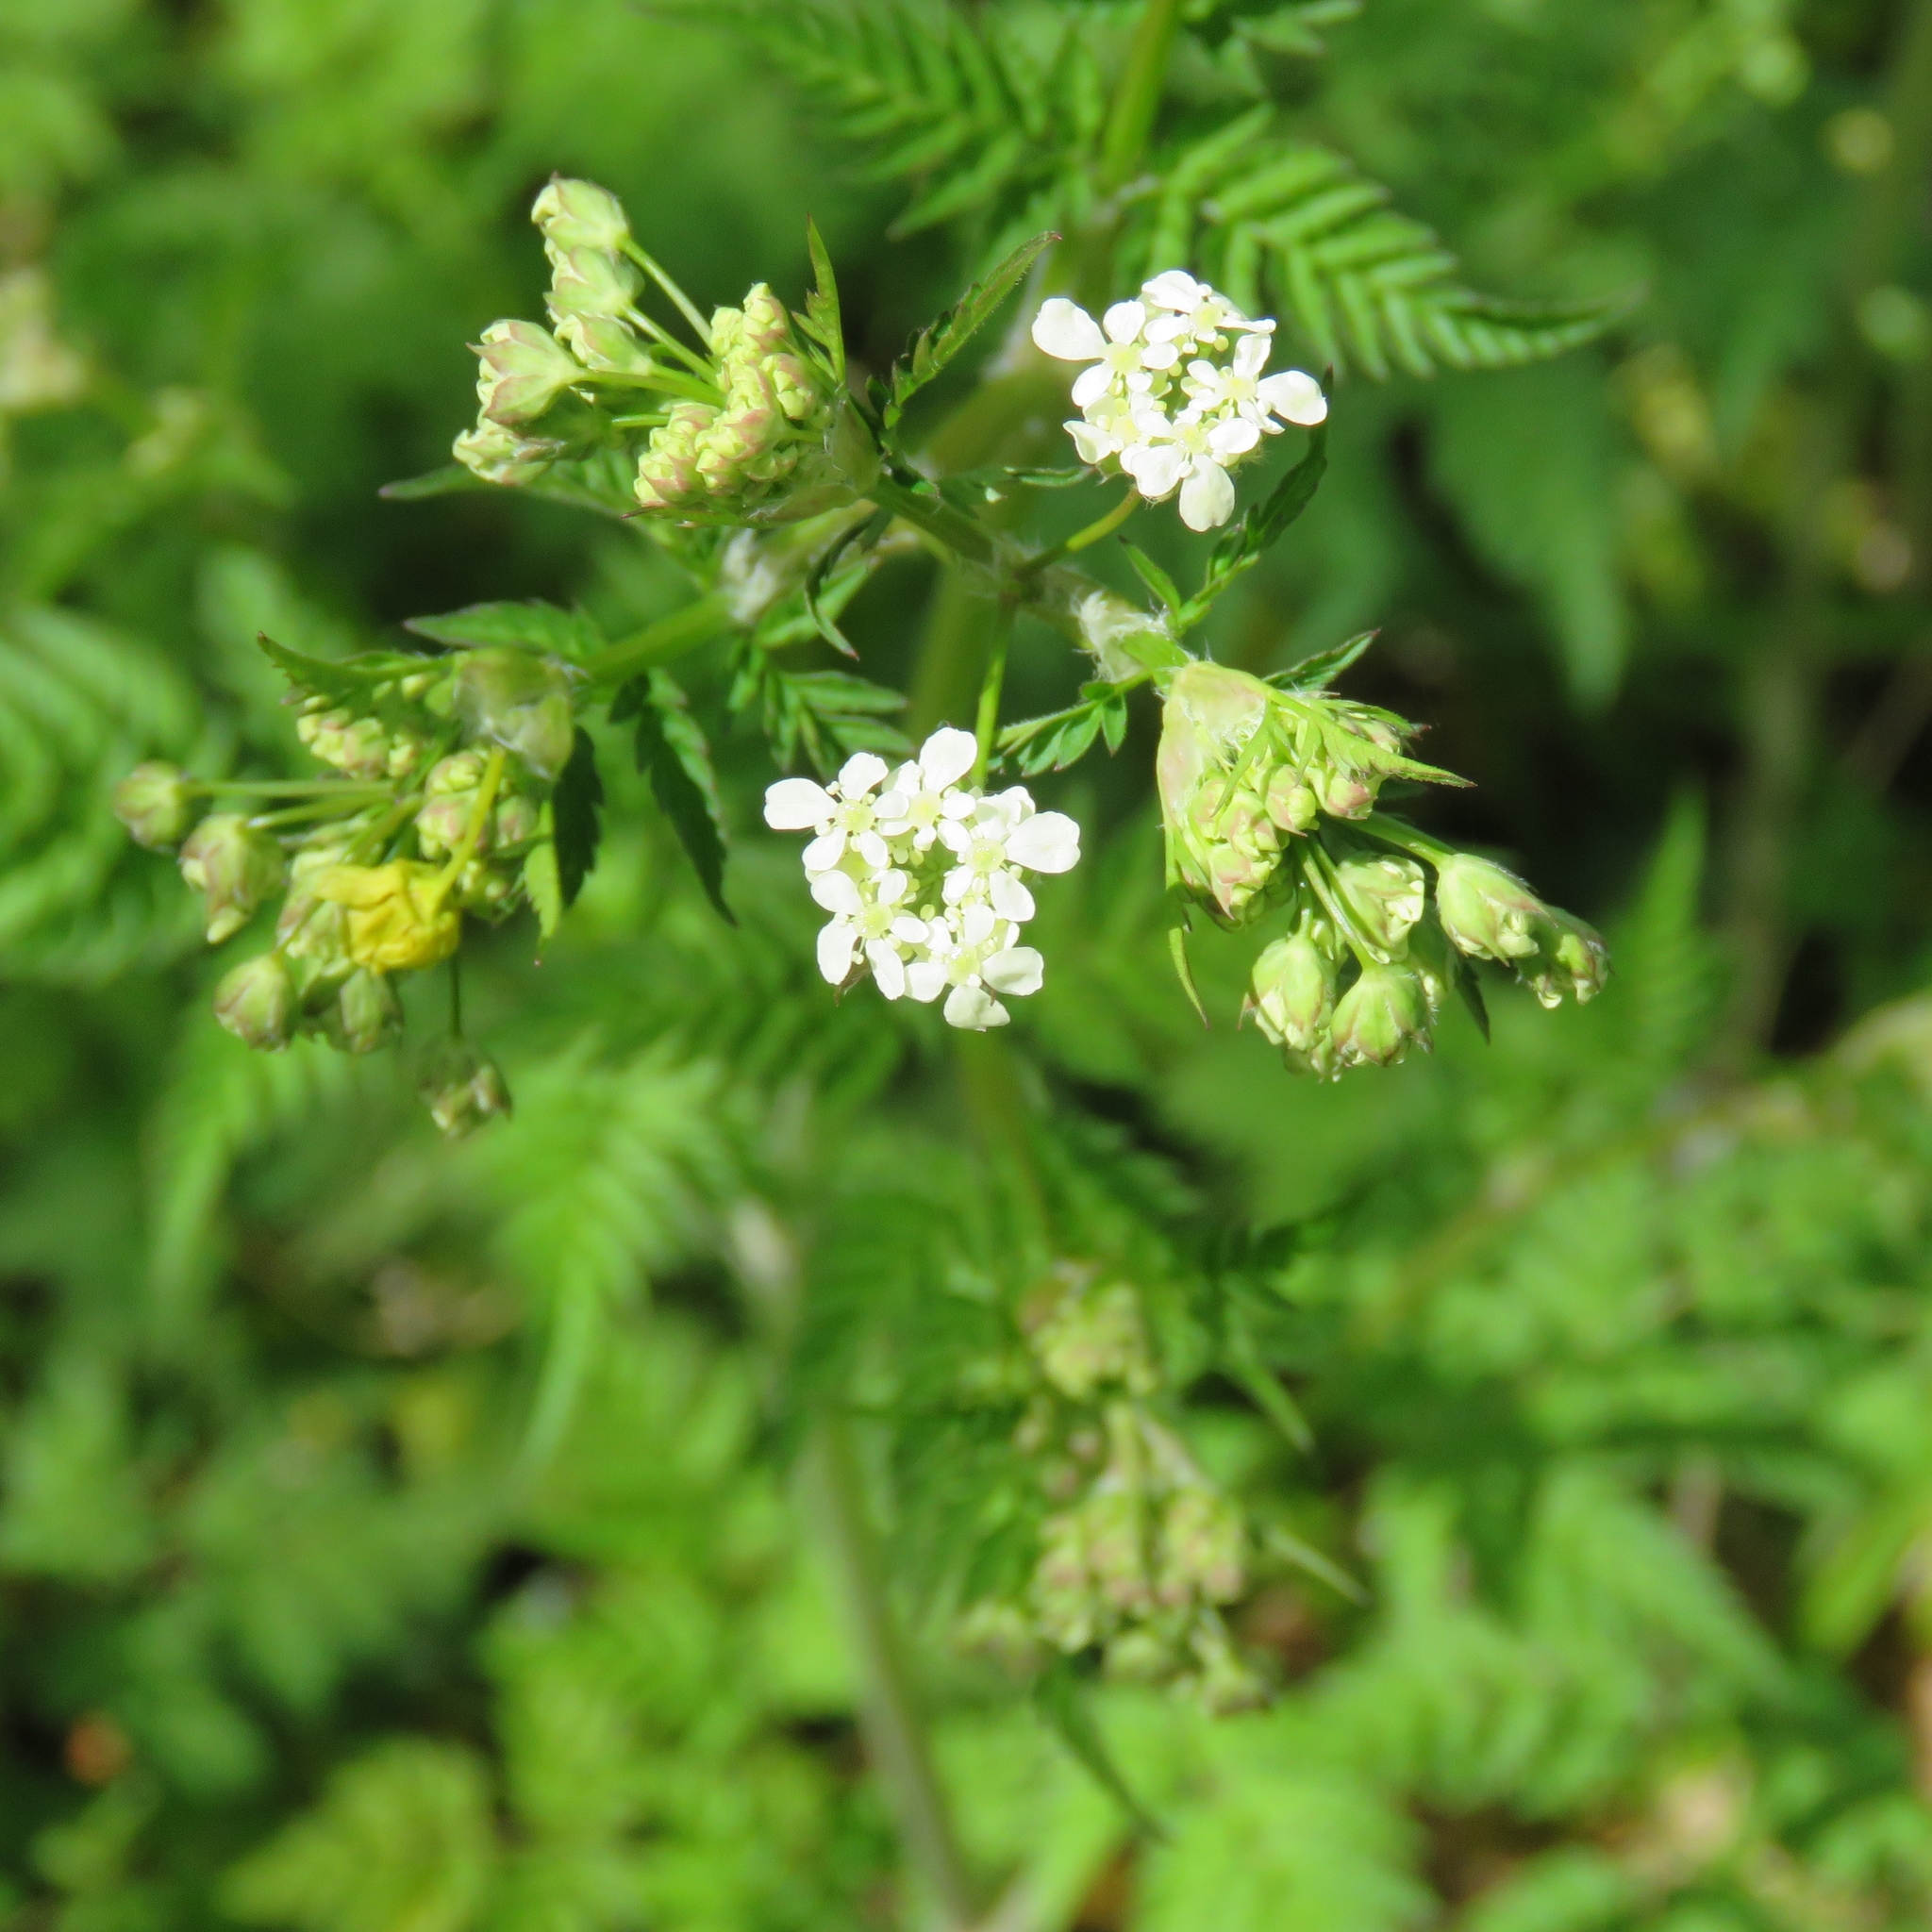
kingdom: Plantae
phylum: Tracheophyta
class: Magnoliopsida
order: Apiales
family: Apiaceae
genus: Anthriscus
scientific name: Anthriscus sylvestris
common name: Cow parsley
